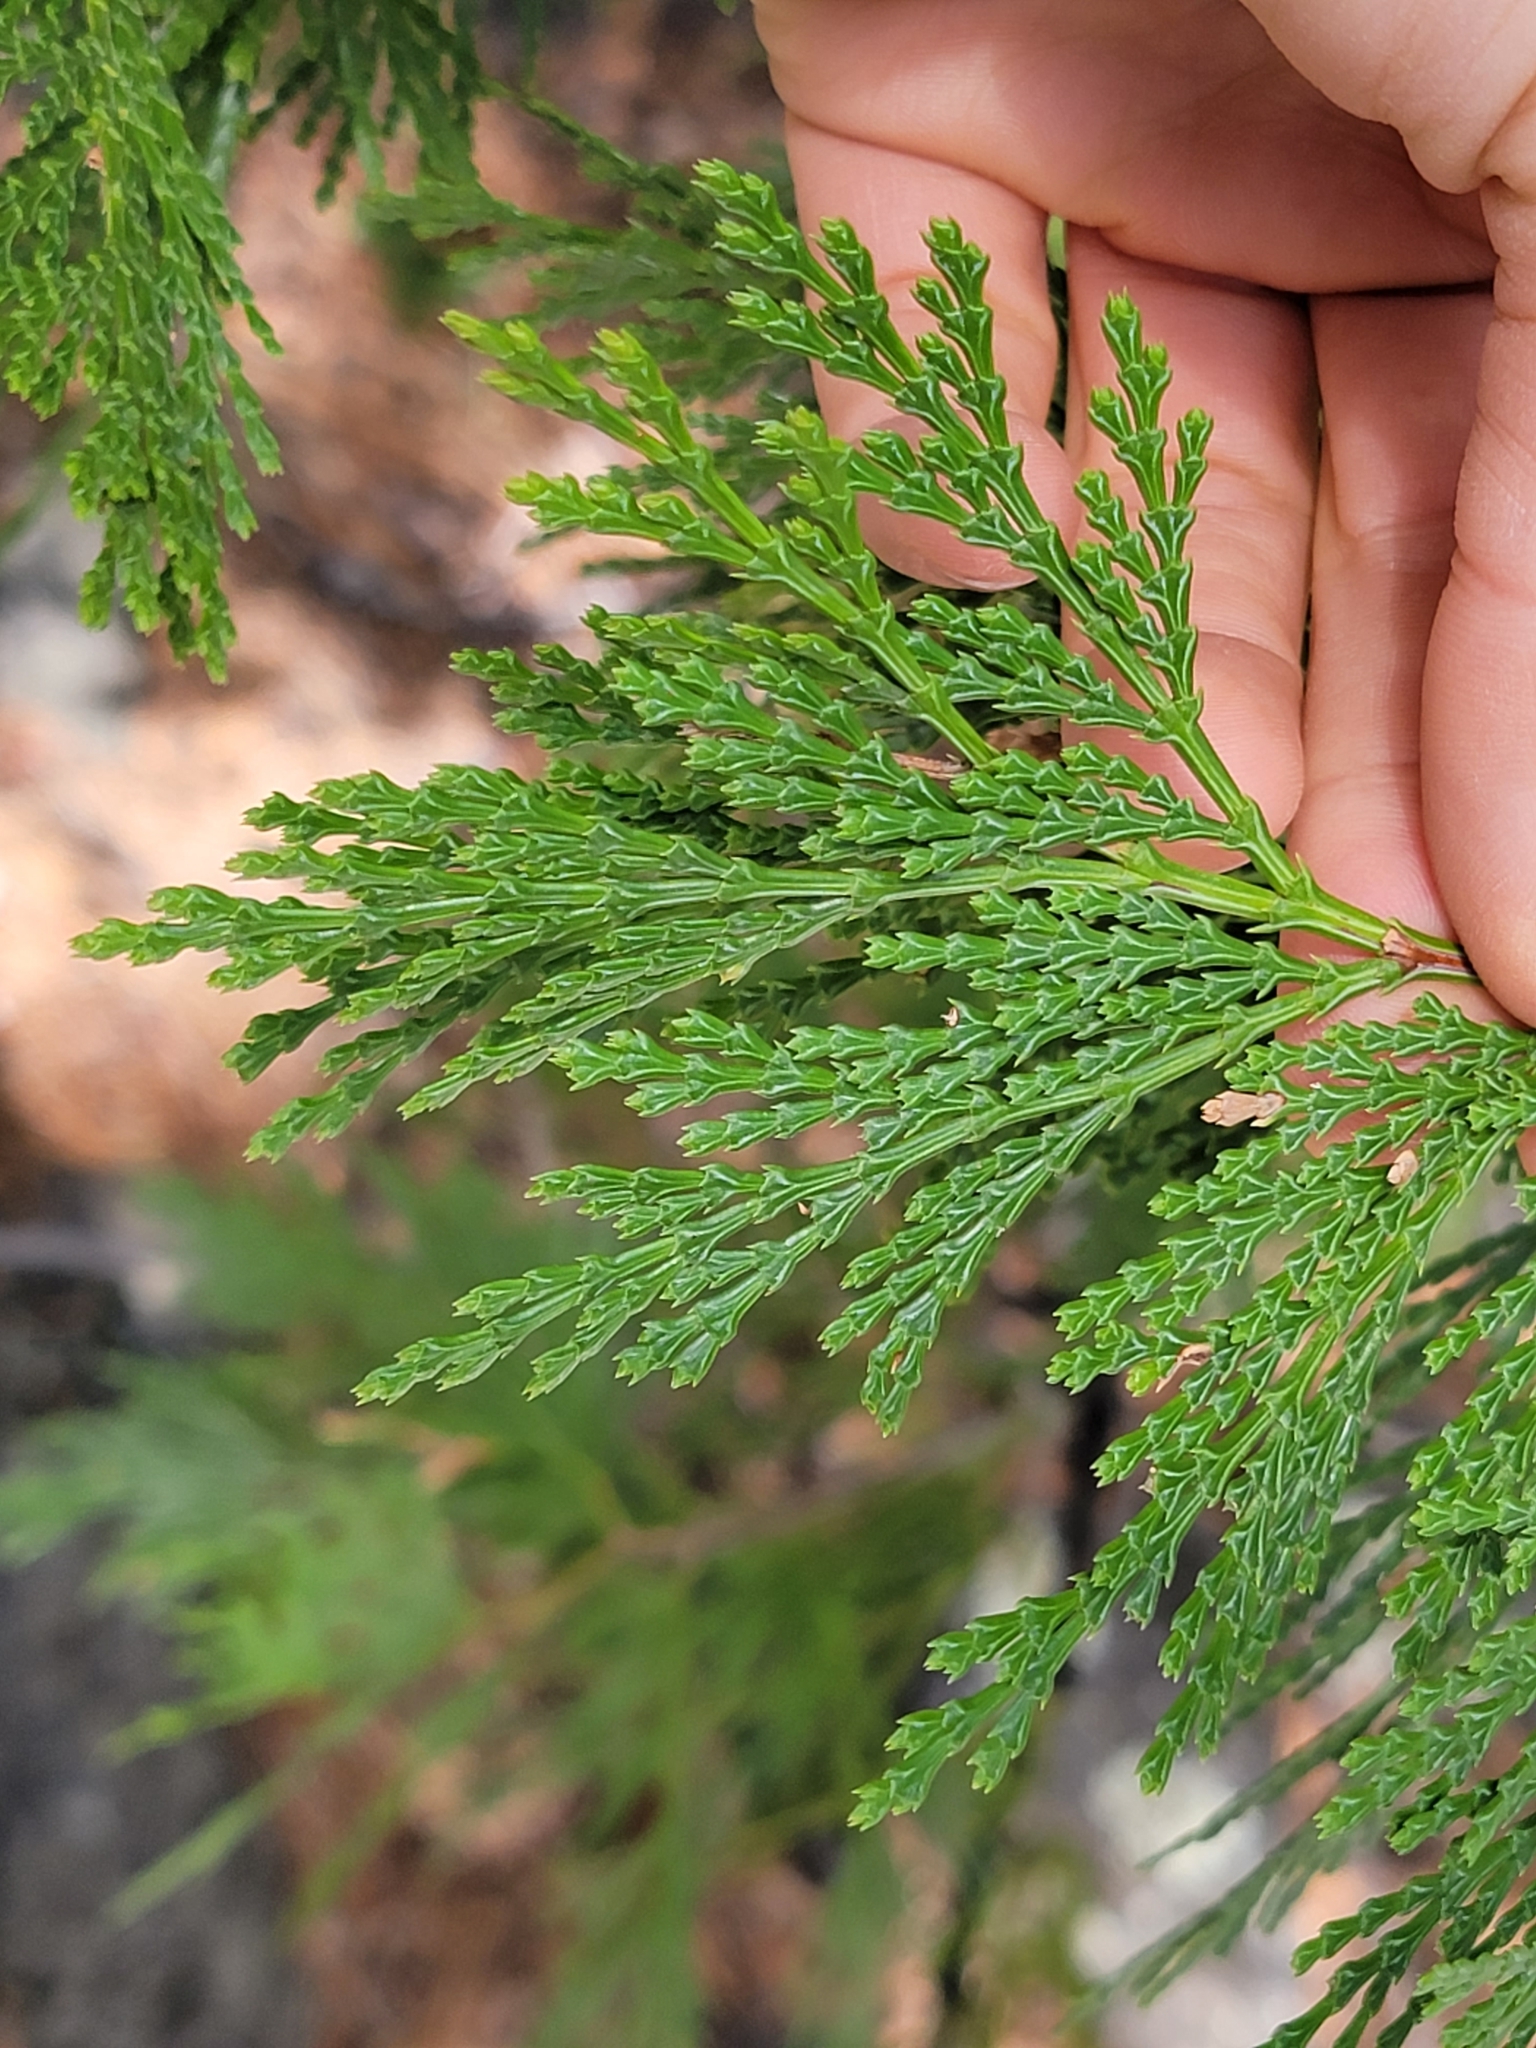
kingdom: Plantae
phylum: Tracheophyta
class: Pinopsida
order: Pinales
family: Cupressaceae
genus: Calocedrus
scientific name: Calocedrus decurrens
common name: Californian incense-cedar
